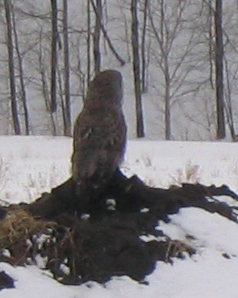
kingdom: Animalia
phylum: Chordata
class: Aves
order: Strigiformes
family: Strigidae
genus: Strix
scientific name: Strix nebulosa
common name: Great grey owl
